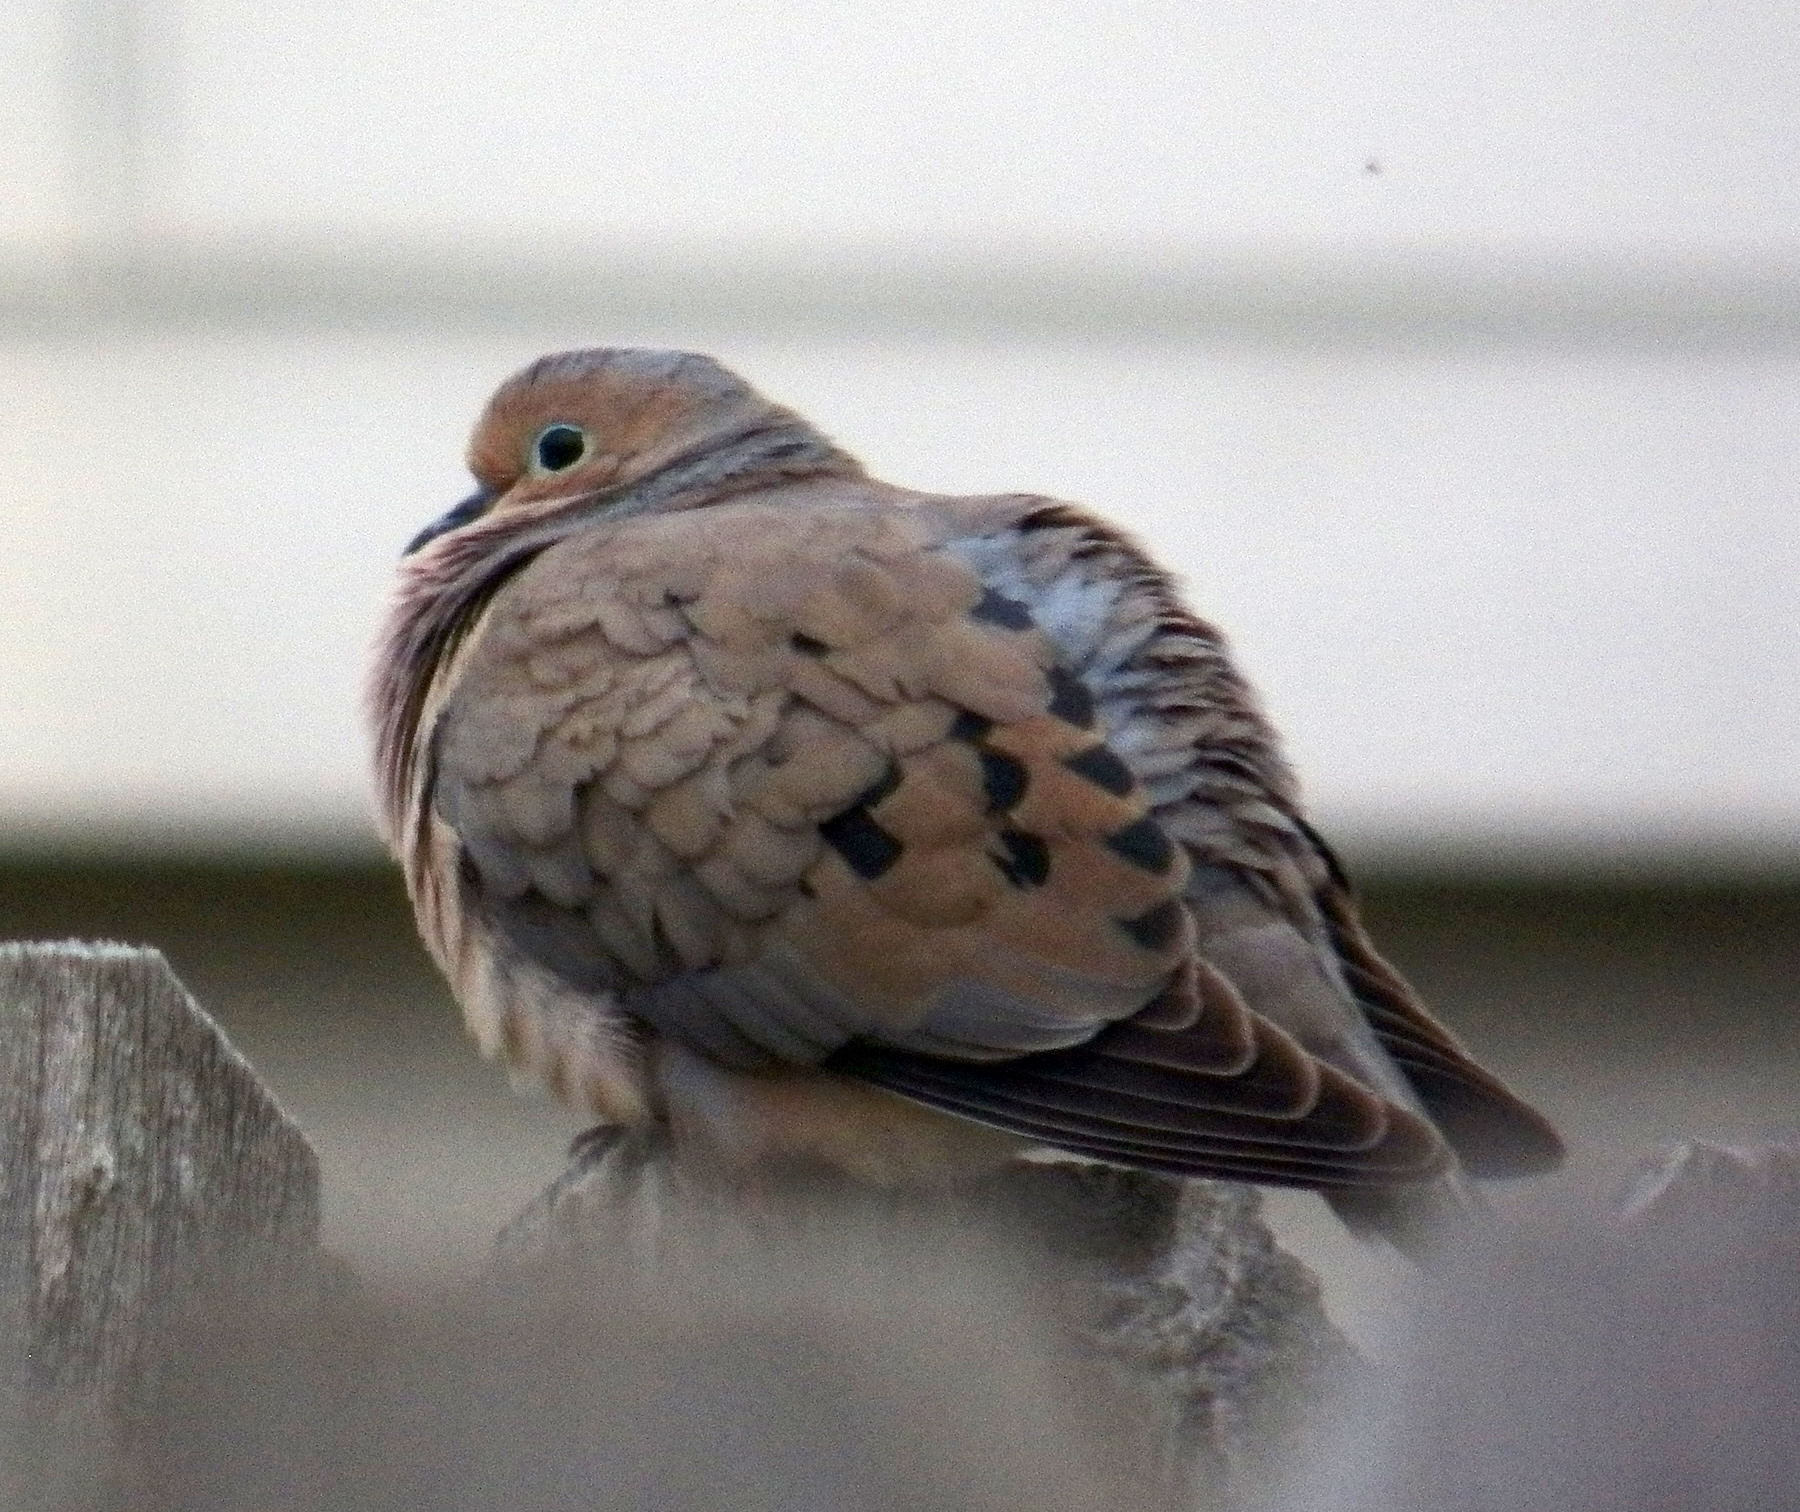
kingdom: Animalia
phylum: Chordata
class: Aves
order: Columbiformes
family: Columbidae
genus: Zenaida
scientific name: Zenaida macroura
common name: Mourning dove
